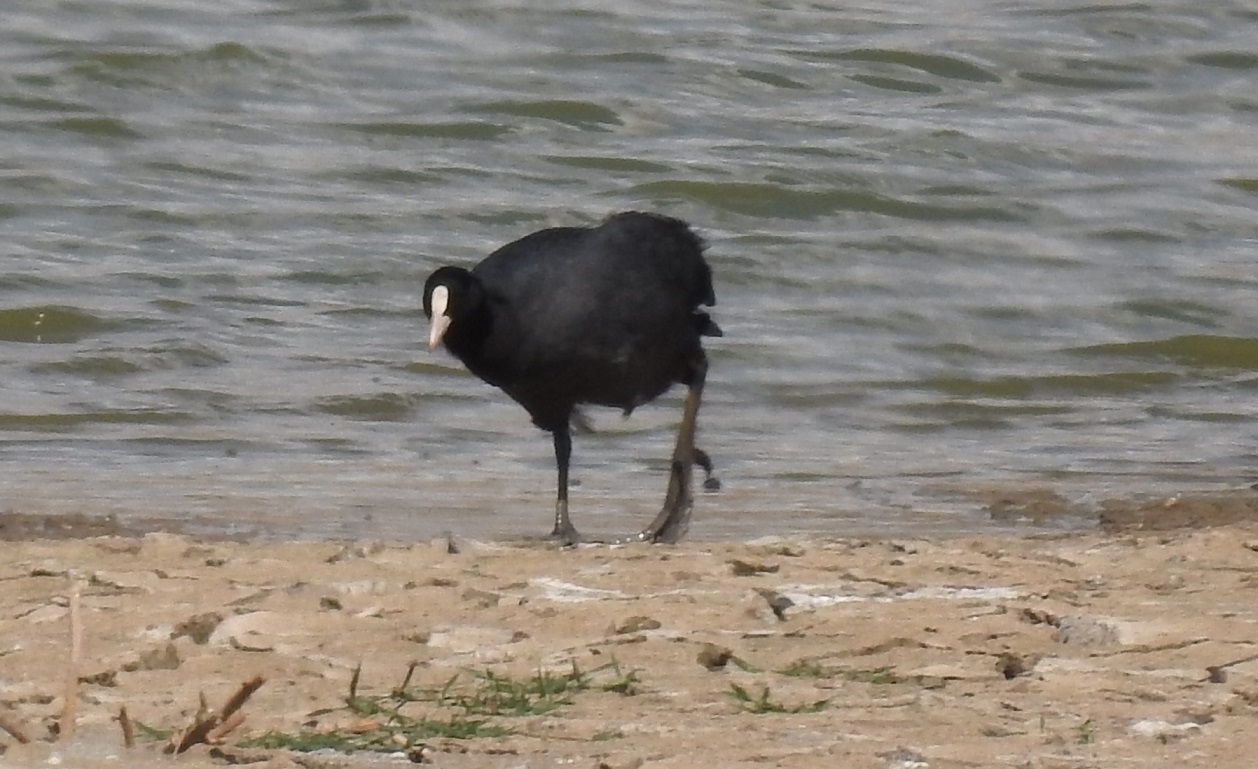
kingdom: Animalia
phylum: Chordata
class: Aves
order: Gruiformes
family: Rallidae
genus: Fulica
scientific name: Fulica atra
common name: Eurasian coot
